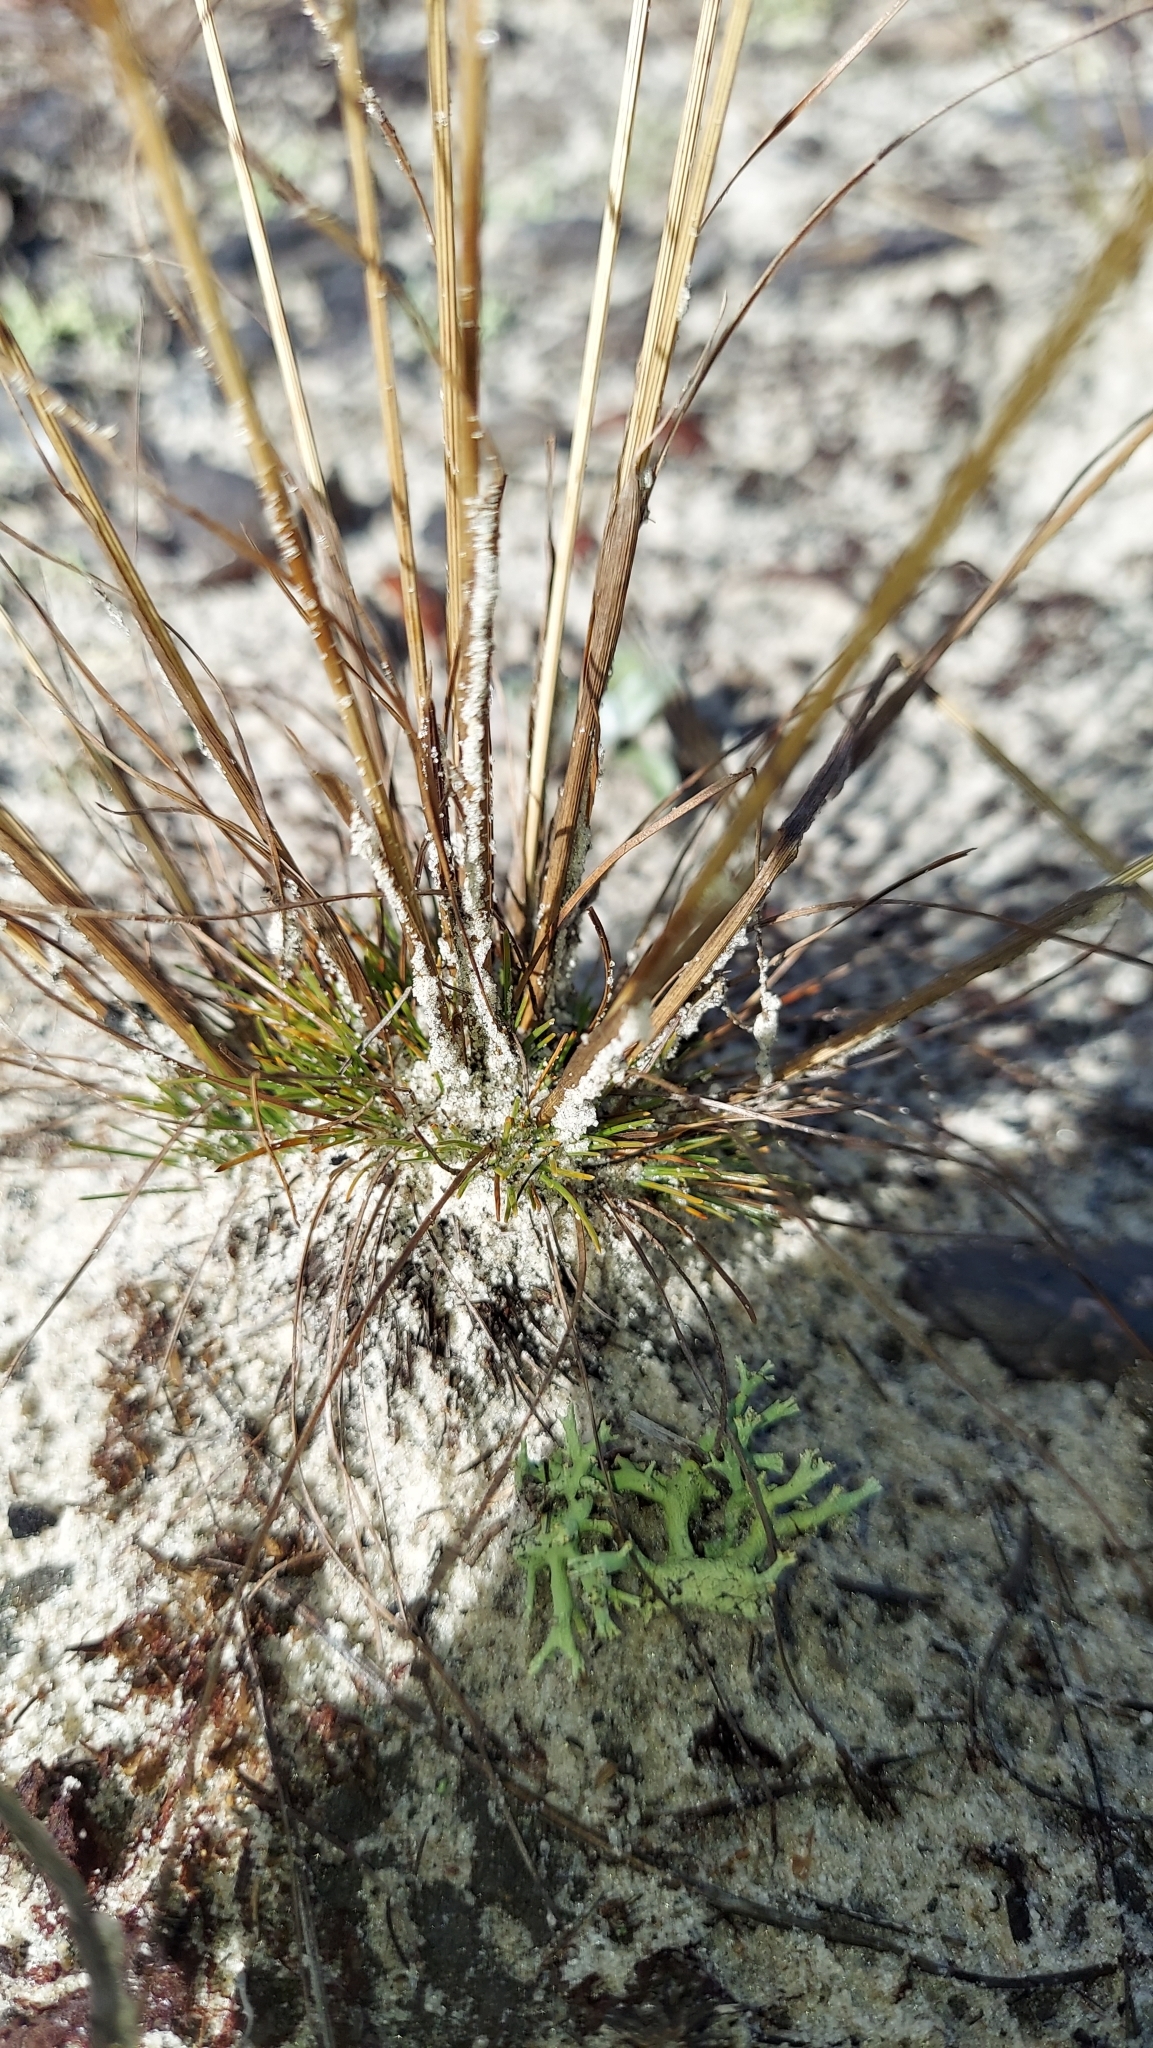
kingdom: Plantae
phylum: Tracheophyta
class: Liliopsida
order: Poales
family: Cyperaceae
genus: Bulbostylis
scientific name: Bulbostylis warei
